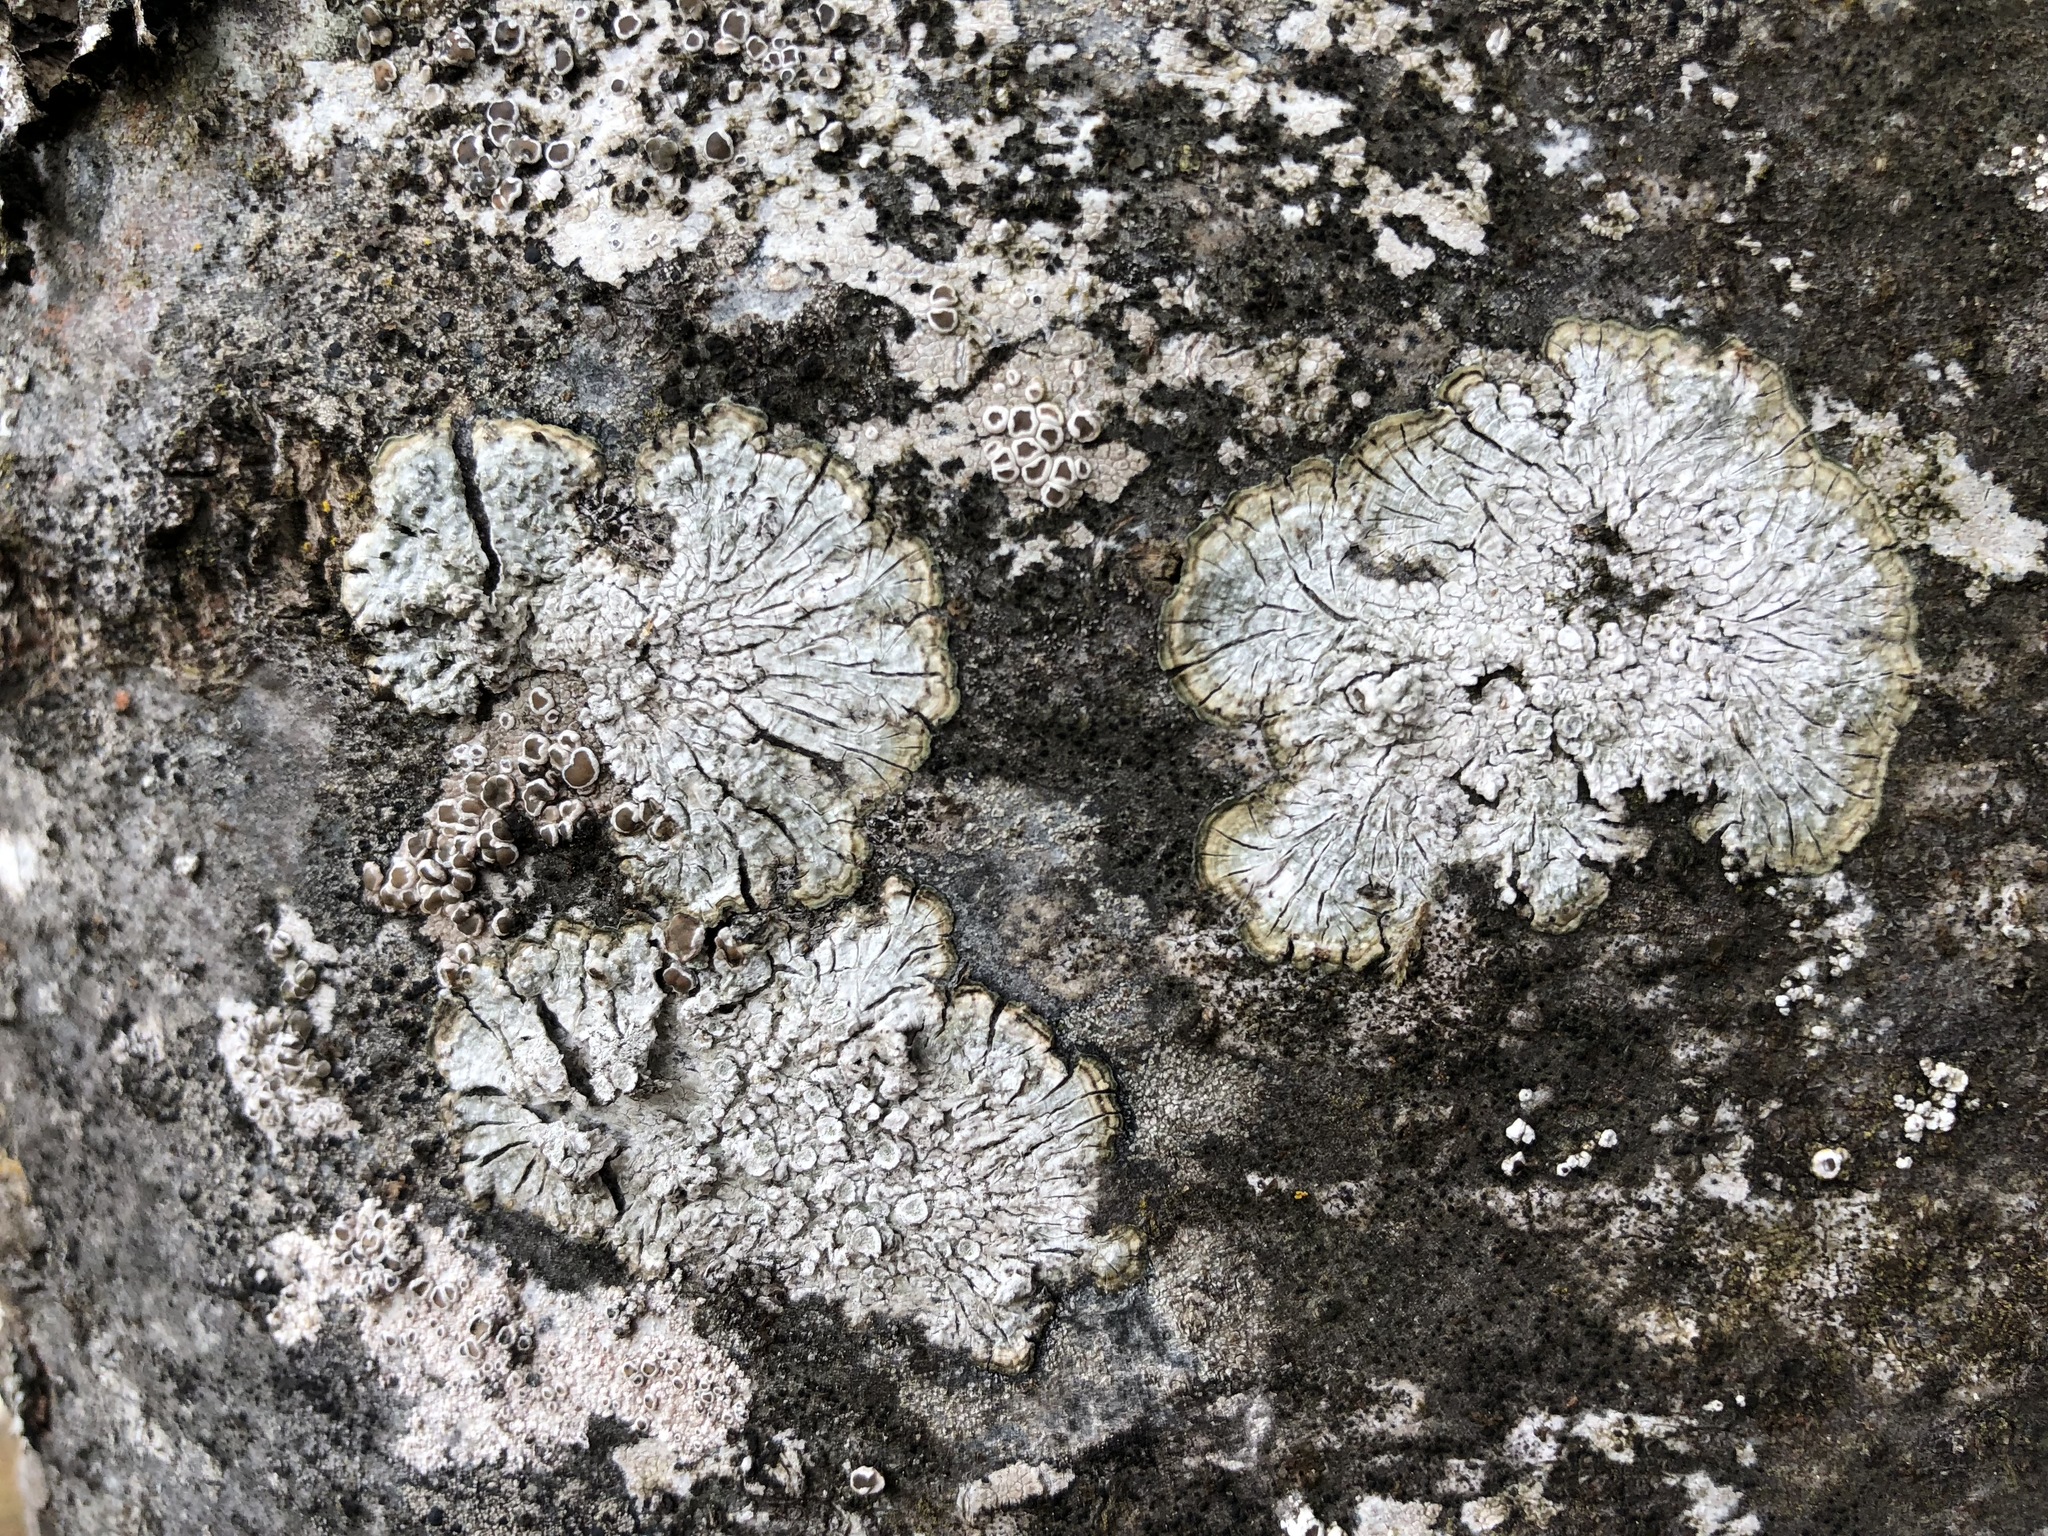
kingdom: Fungi
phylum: Ascomycota
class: Lecanoromycetes
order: Pertusariales
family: Pertusariaceae
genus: Lepra
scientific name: Lepra albescens
